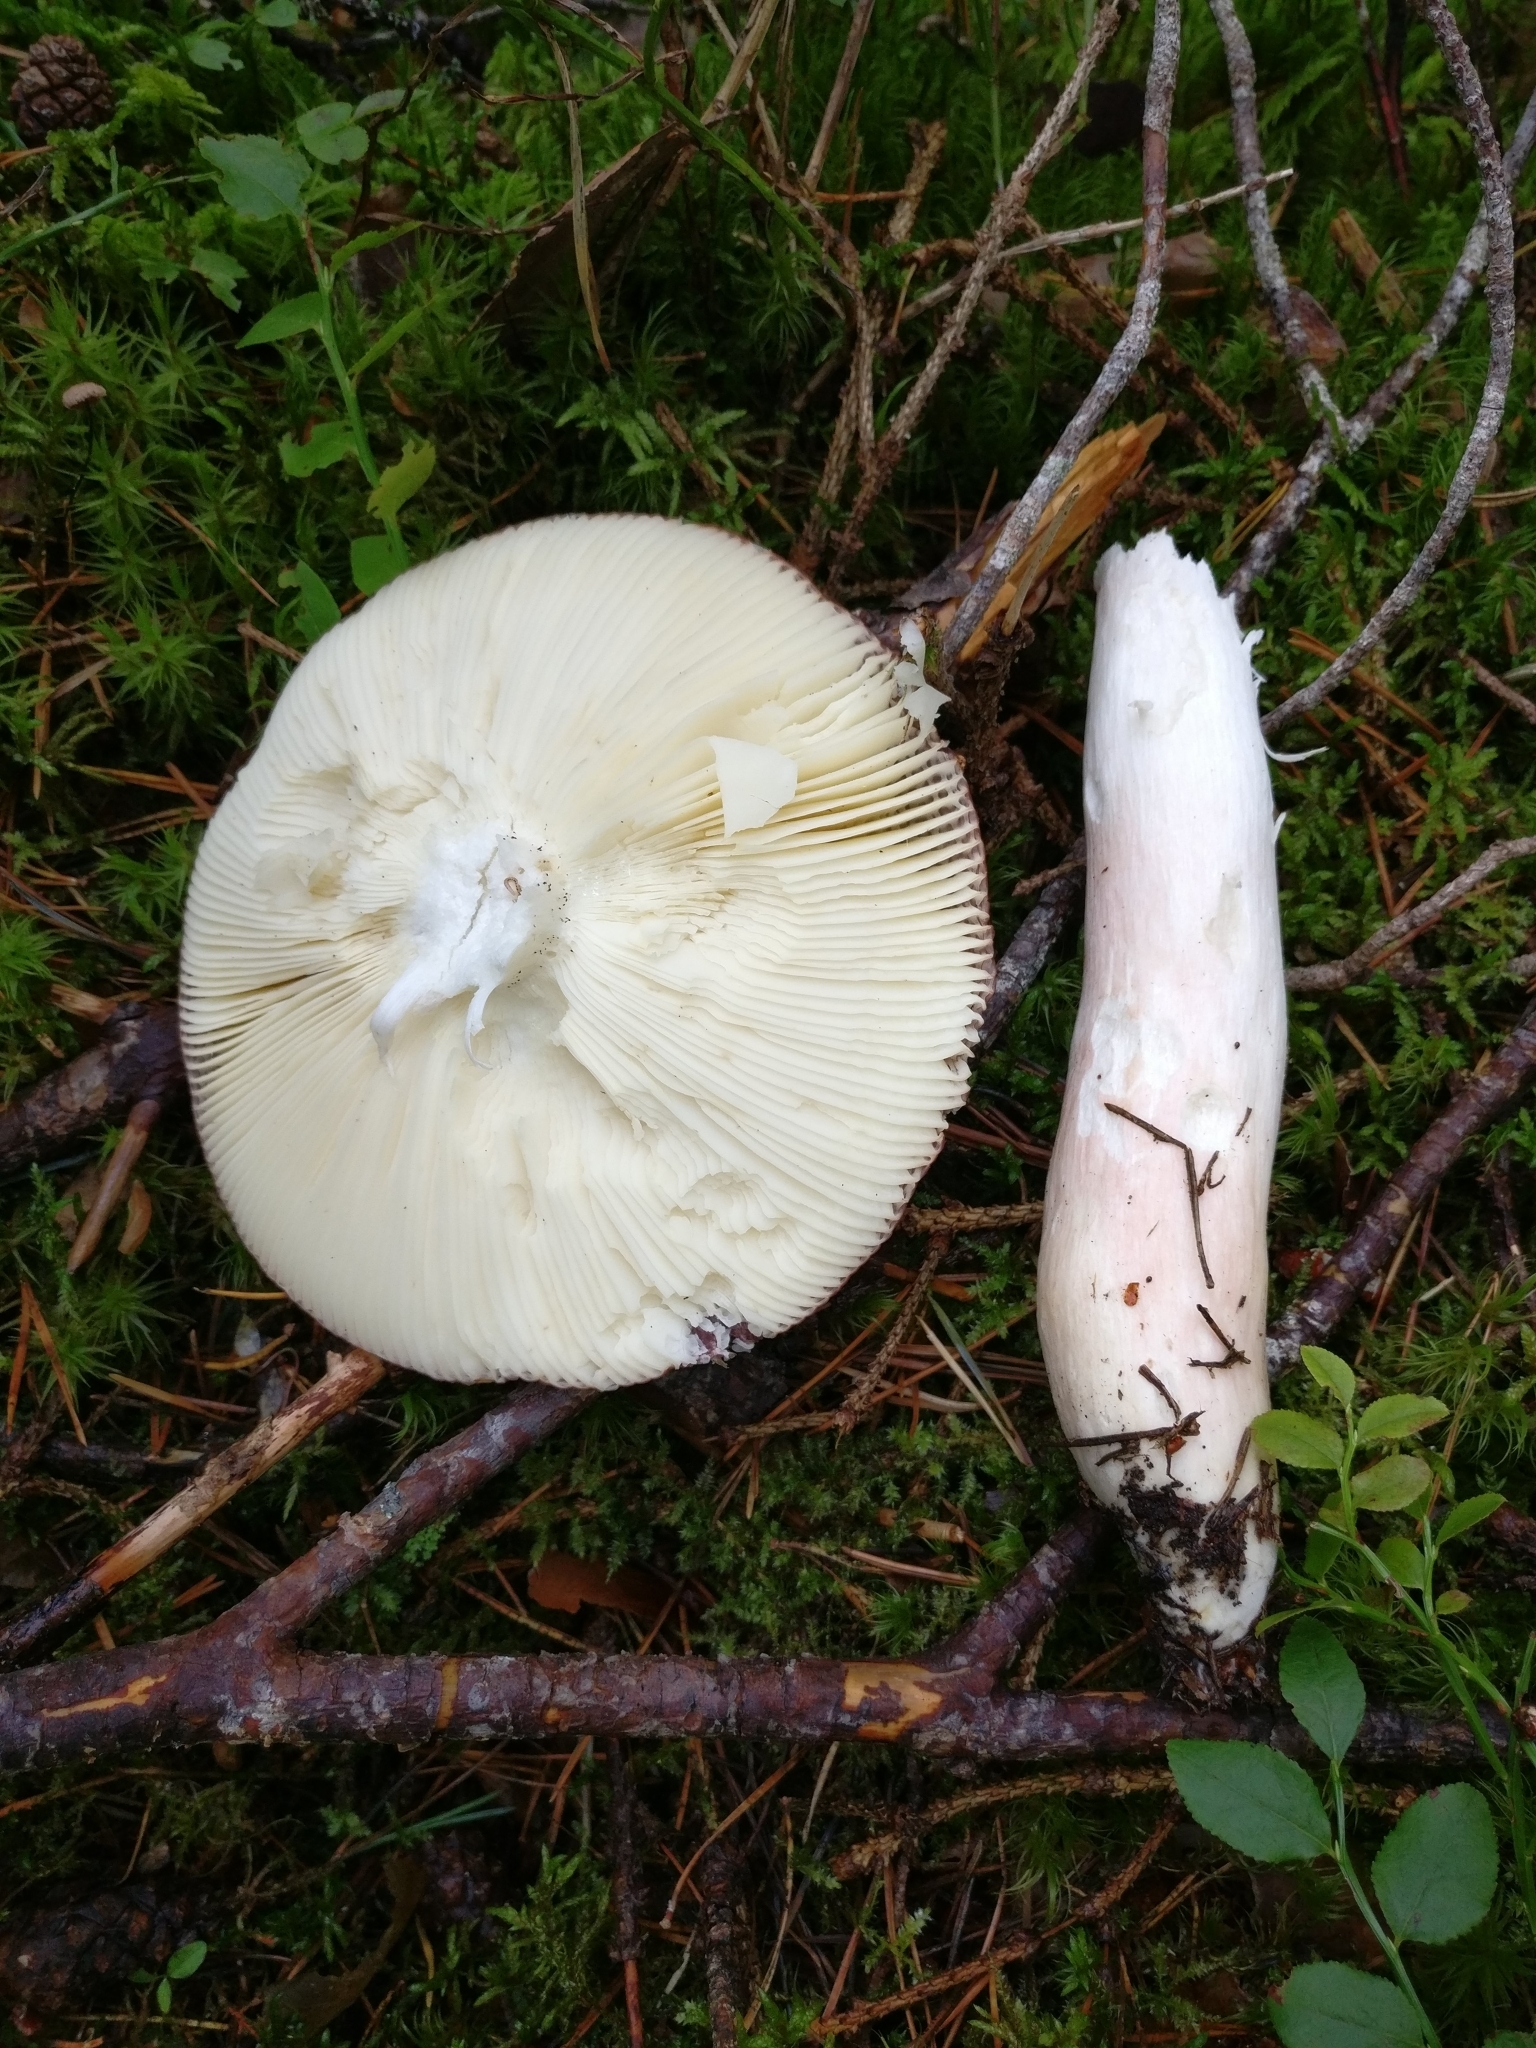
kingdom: Fungi
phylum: Basidiomycota
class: Agaricomycetes
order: Russulales
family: Russulaceae
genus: Russula
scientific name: Russula paludosa
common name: Hintapink
